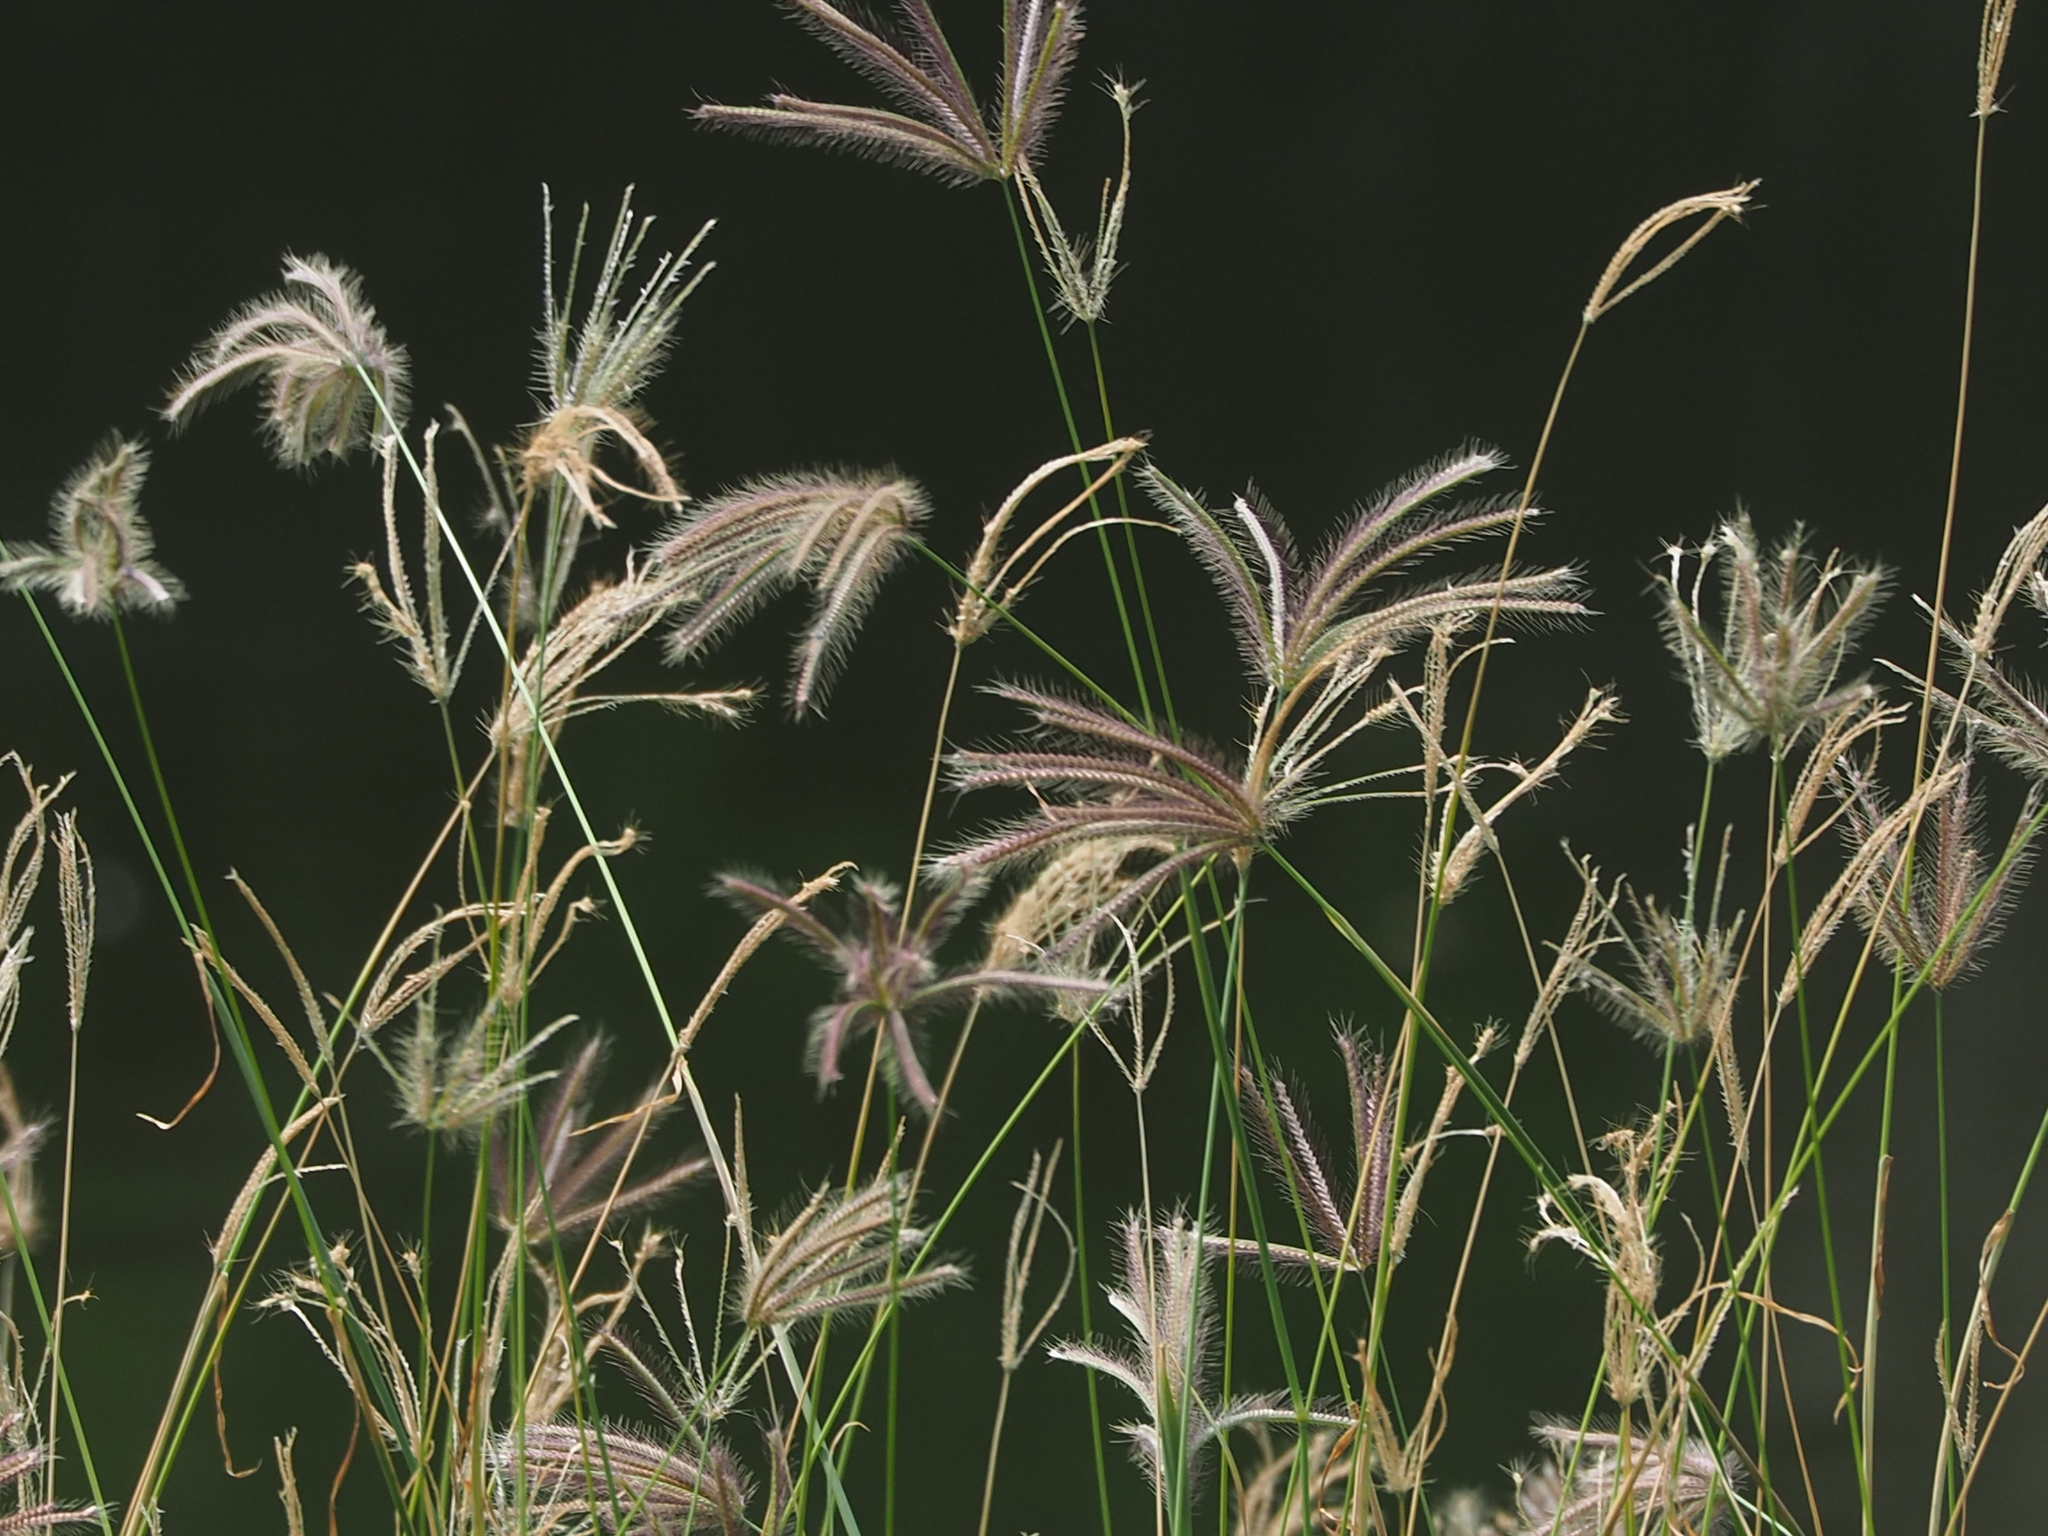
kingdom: Plantae
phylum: Tracheophyta
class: Liliopsida
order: Poales
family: Poaceae
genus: Chloris
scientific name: Chloris barbata
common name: Swollen fingergrass
